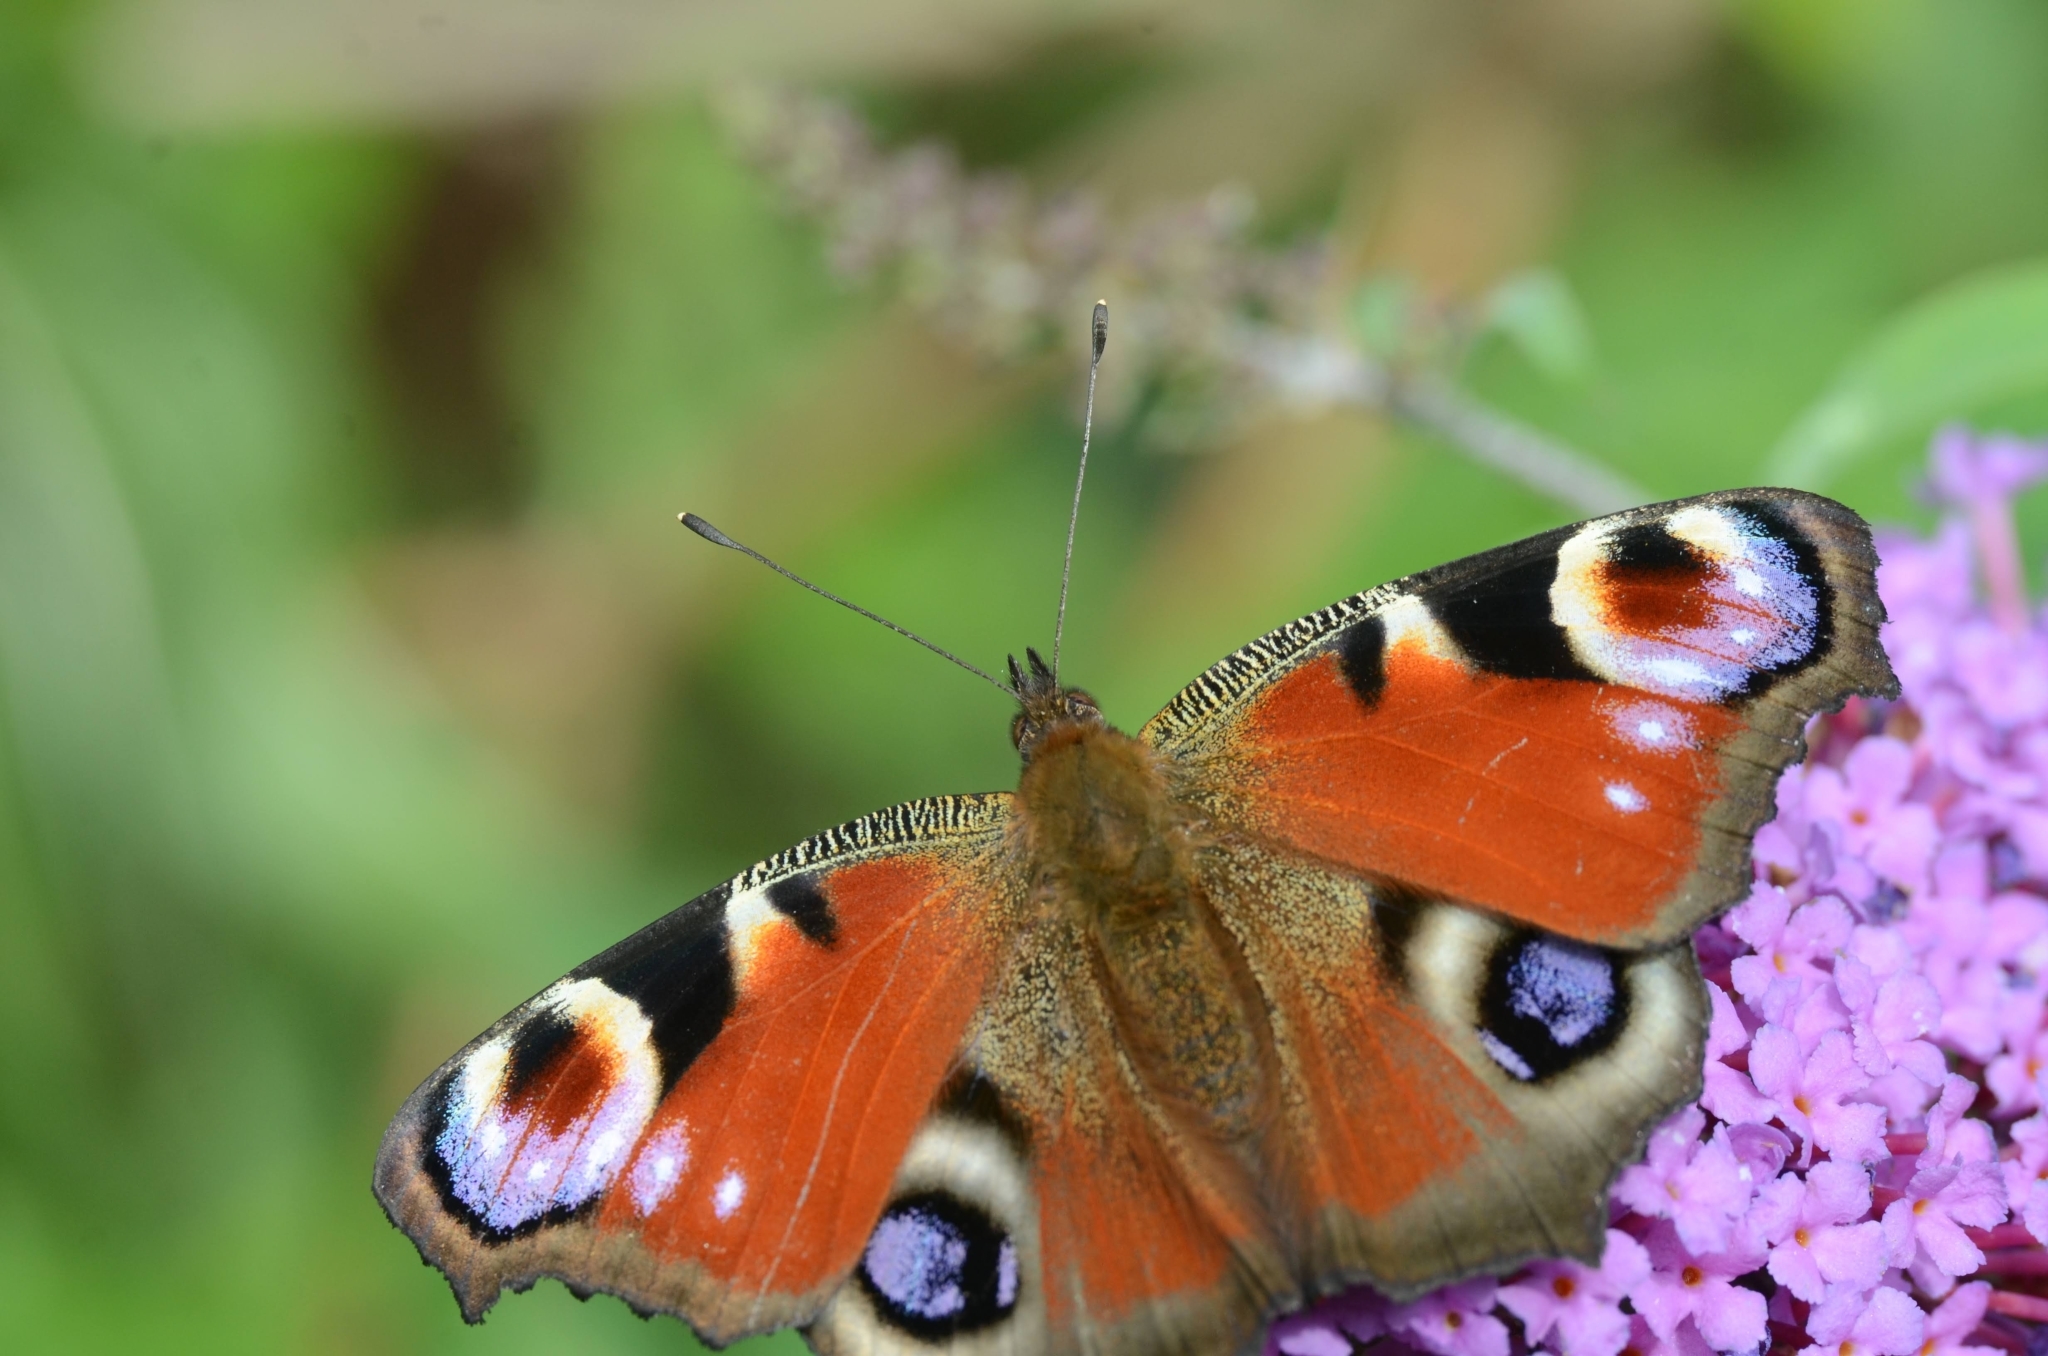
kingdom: Animalia
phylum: Arthropoda
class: Insecta
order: Lepidoptera
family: Nymphalidae
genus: Aglais
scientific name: Aglais io
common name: Peacock
